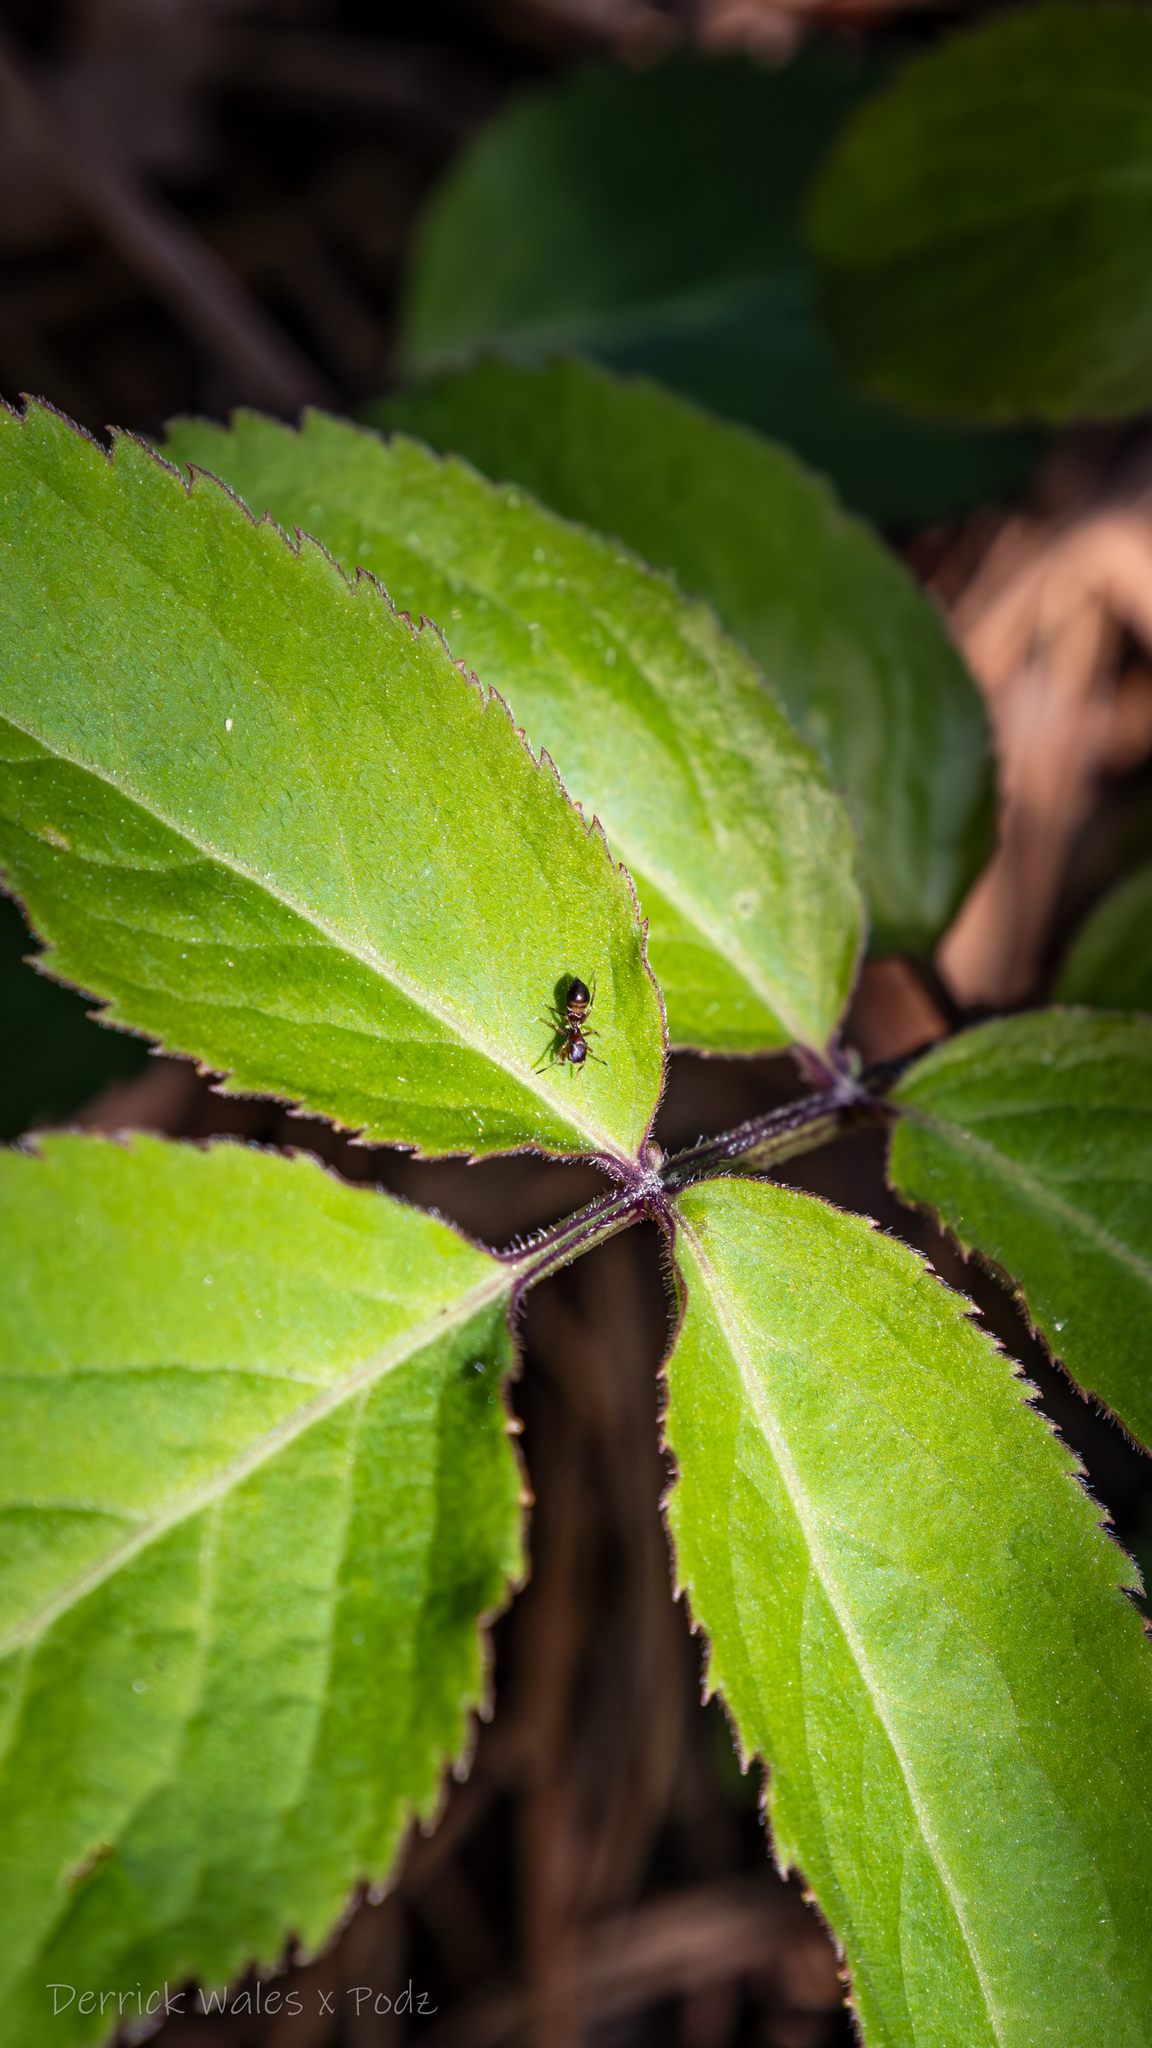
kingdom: Animalia
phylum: Arthropoda
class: Insecta
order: Hymenoptera
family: Formicidae
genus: Camponotus
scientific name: Camponotus subbarbatus
